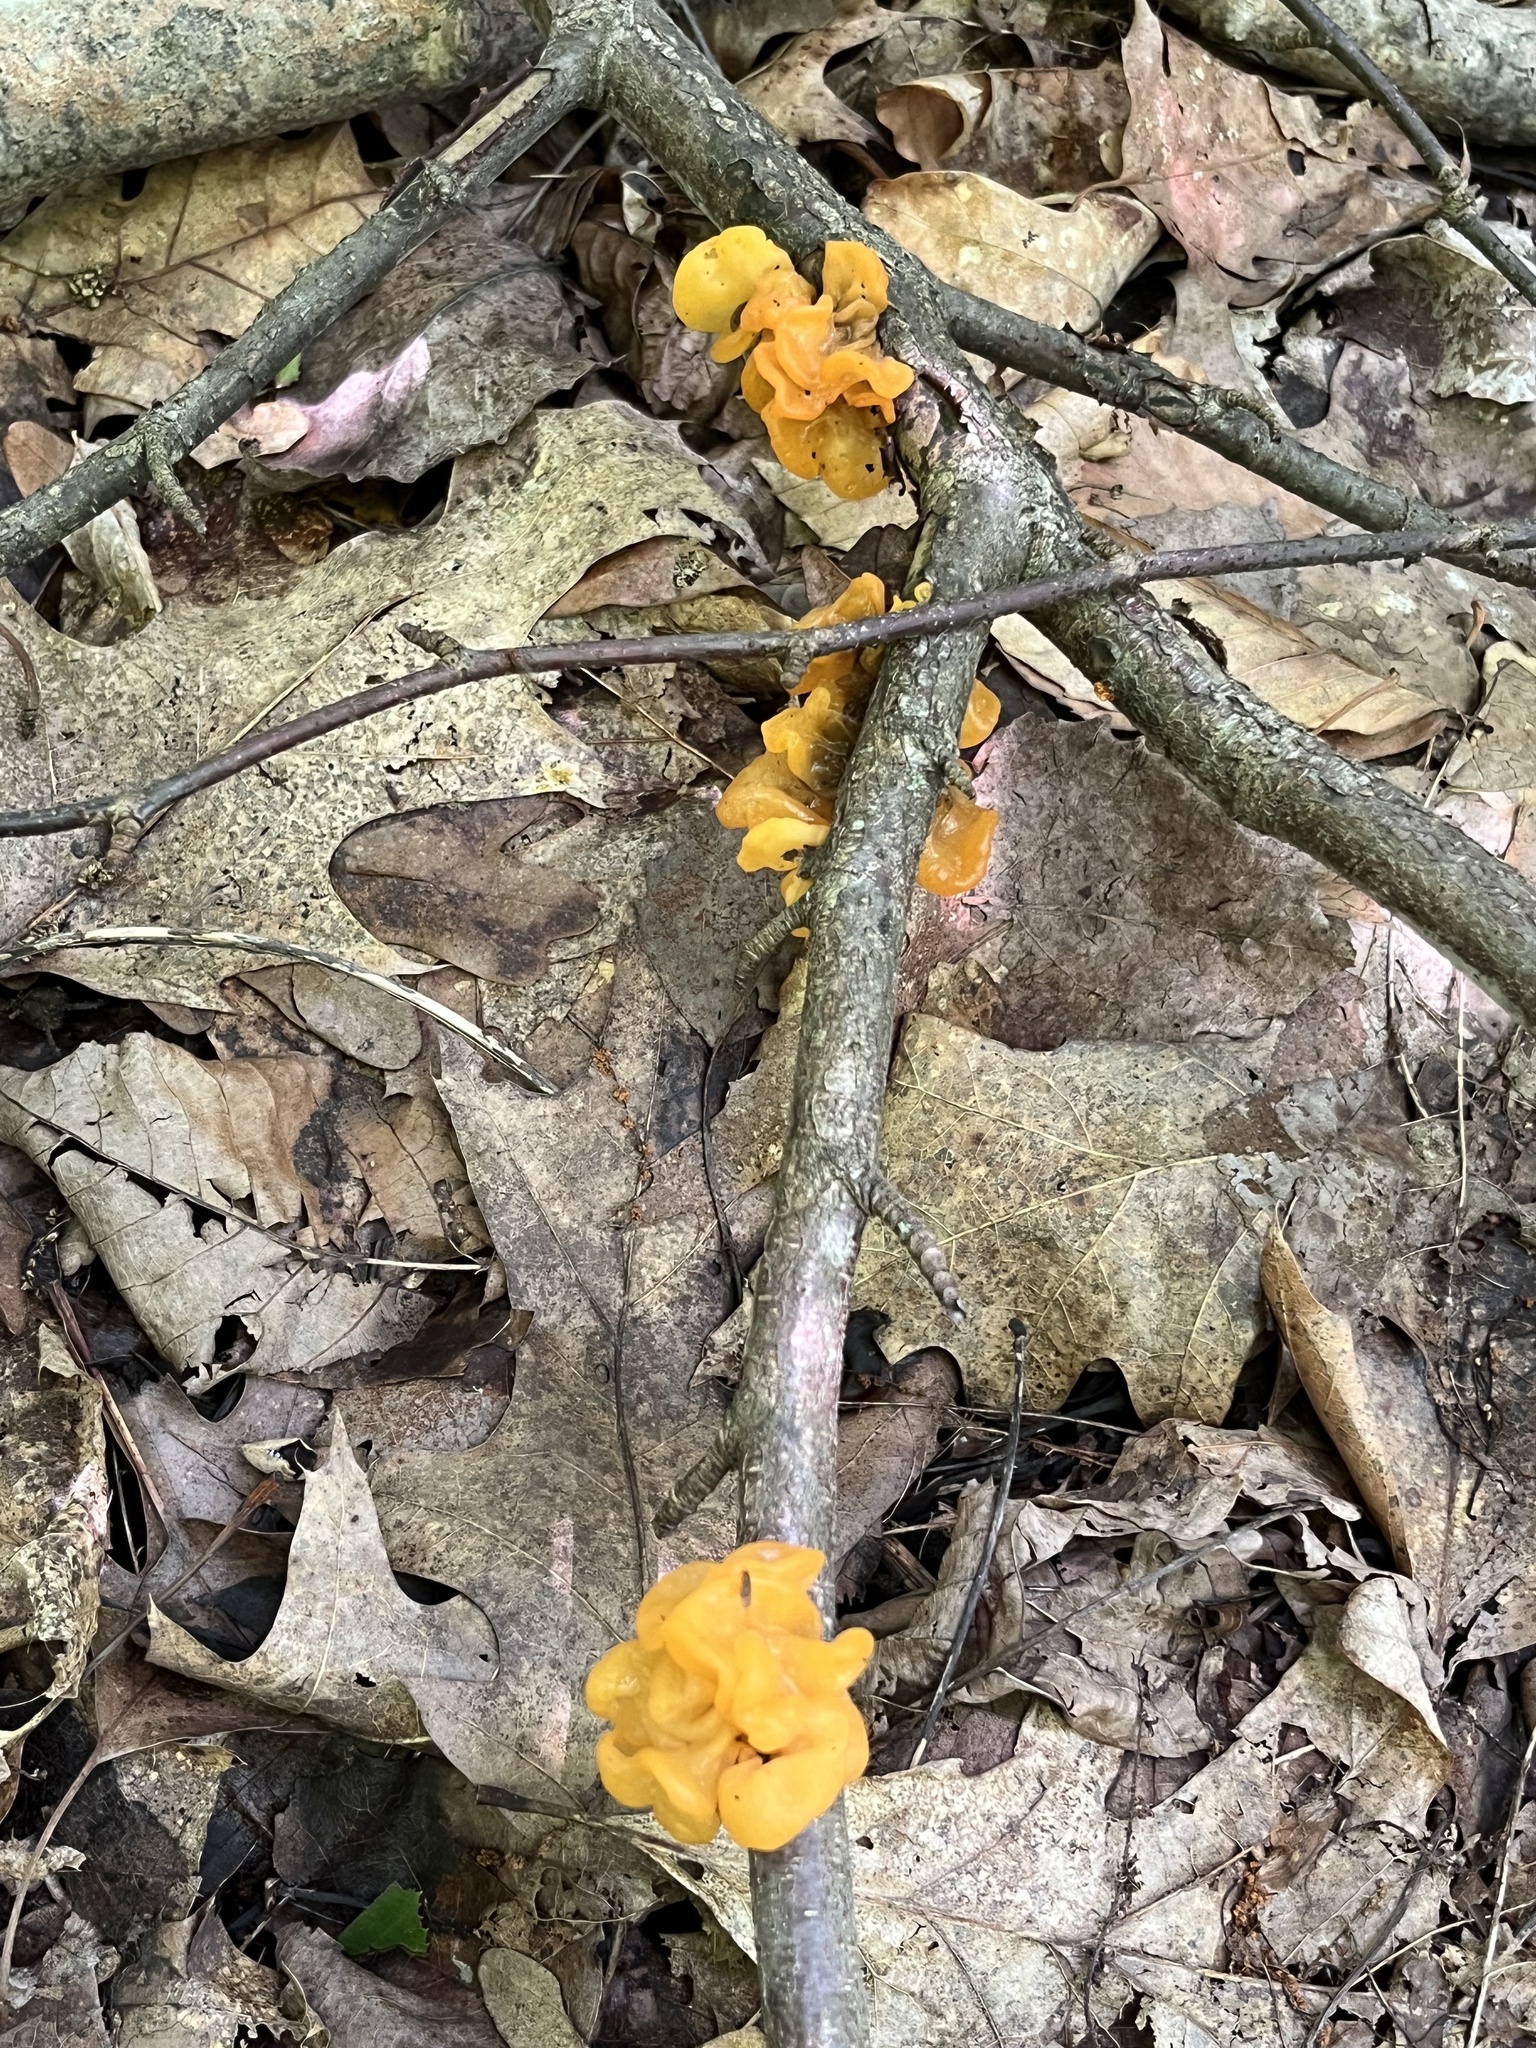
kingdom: Fungi
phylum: Basidiomycota
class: Tremellomycetes
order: Tremellales
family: Tremellaceae
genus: Tremella
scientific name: Tremella mesenterica
